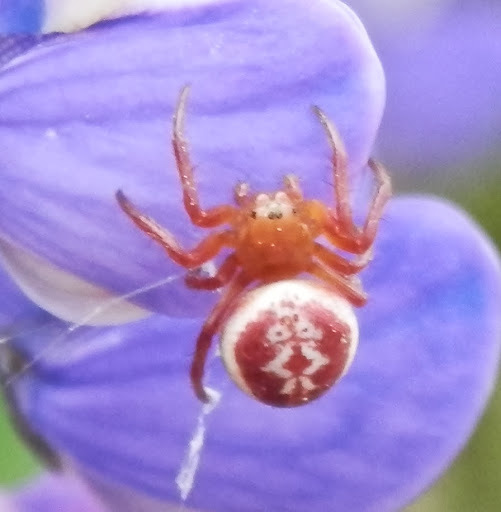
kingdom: Animalia
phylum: Arthropoda
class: Arachnida
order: Araneae
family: Araneidae
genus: Araniella
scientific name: Araniella displicata
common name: Sixspotted orb weaver
